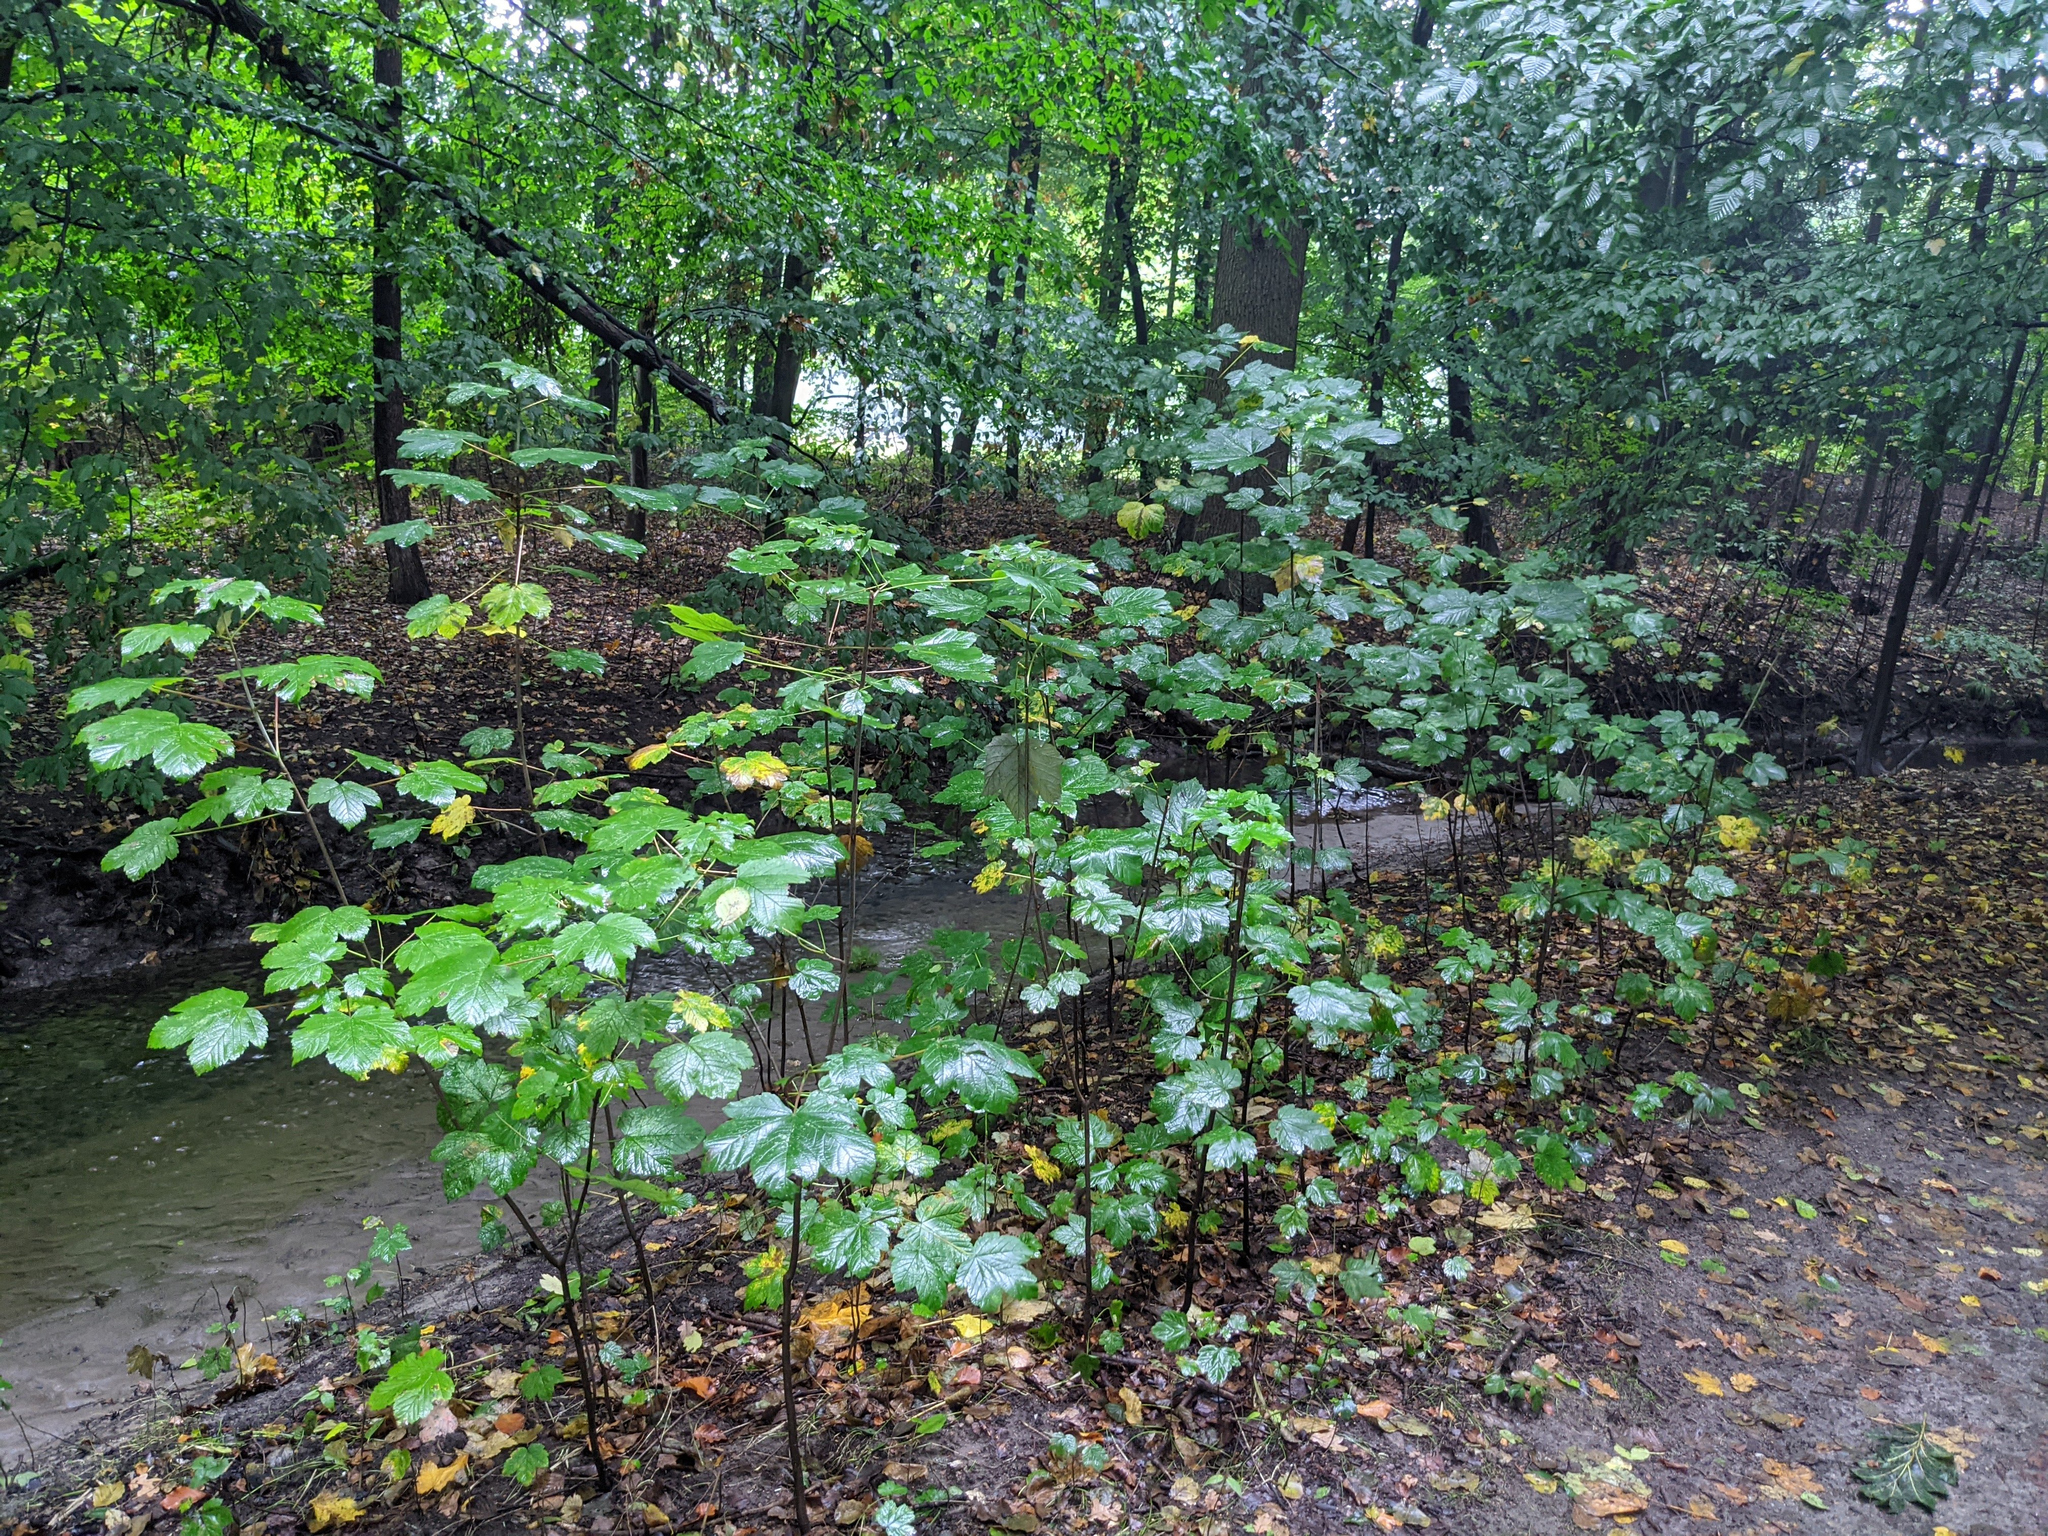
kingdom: Plantae
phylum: Tracheophyta
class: Magnoliopsida
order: Sapindales
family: Sapindaceae
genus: Acer
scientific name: Acer pseudoplatanus
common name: Sycamore
